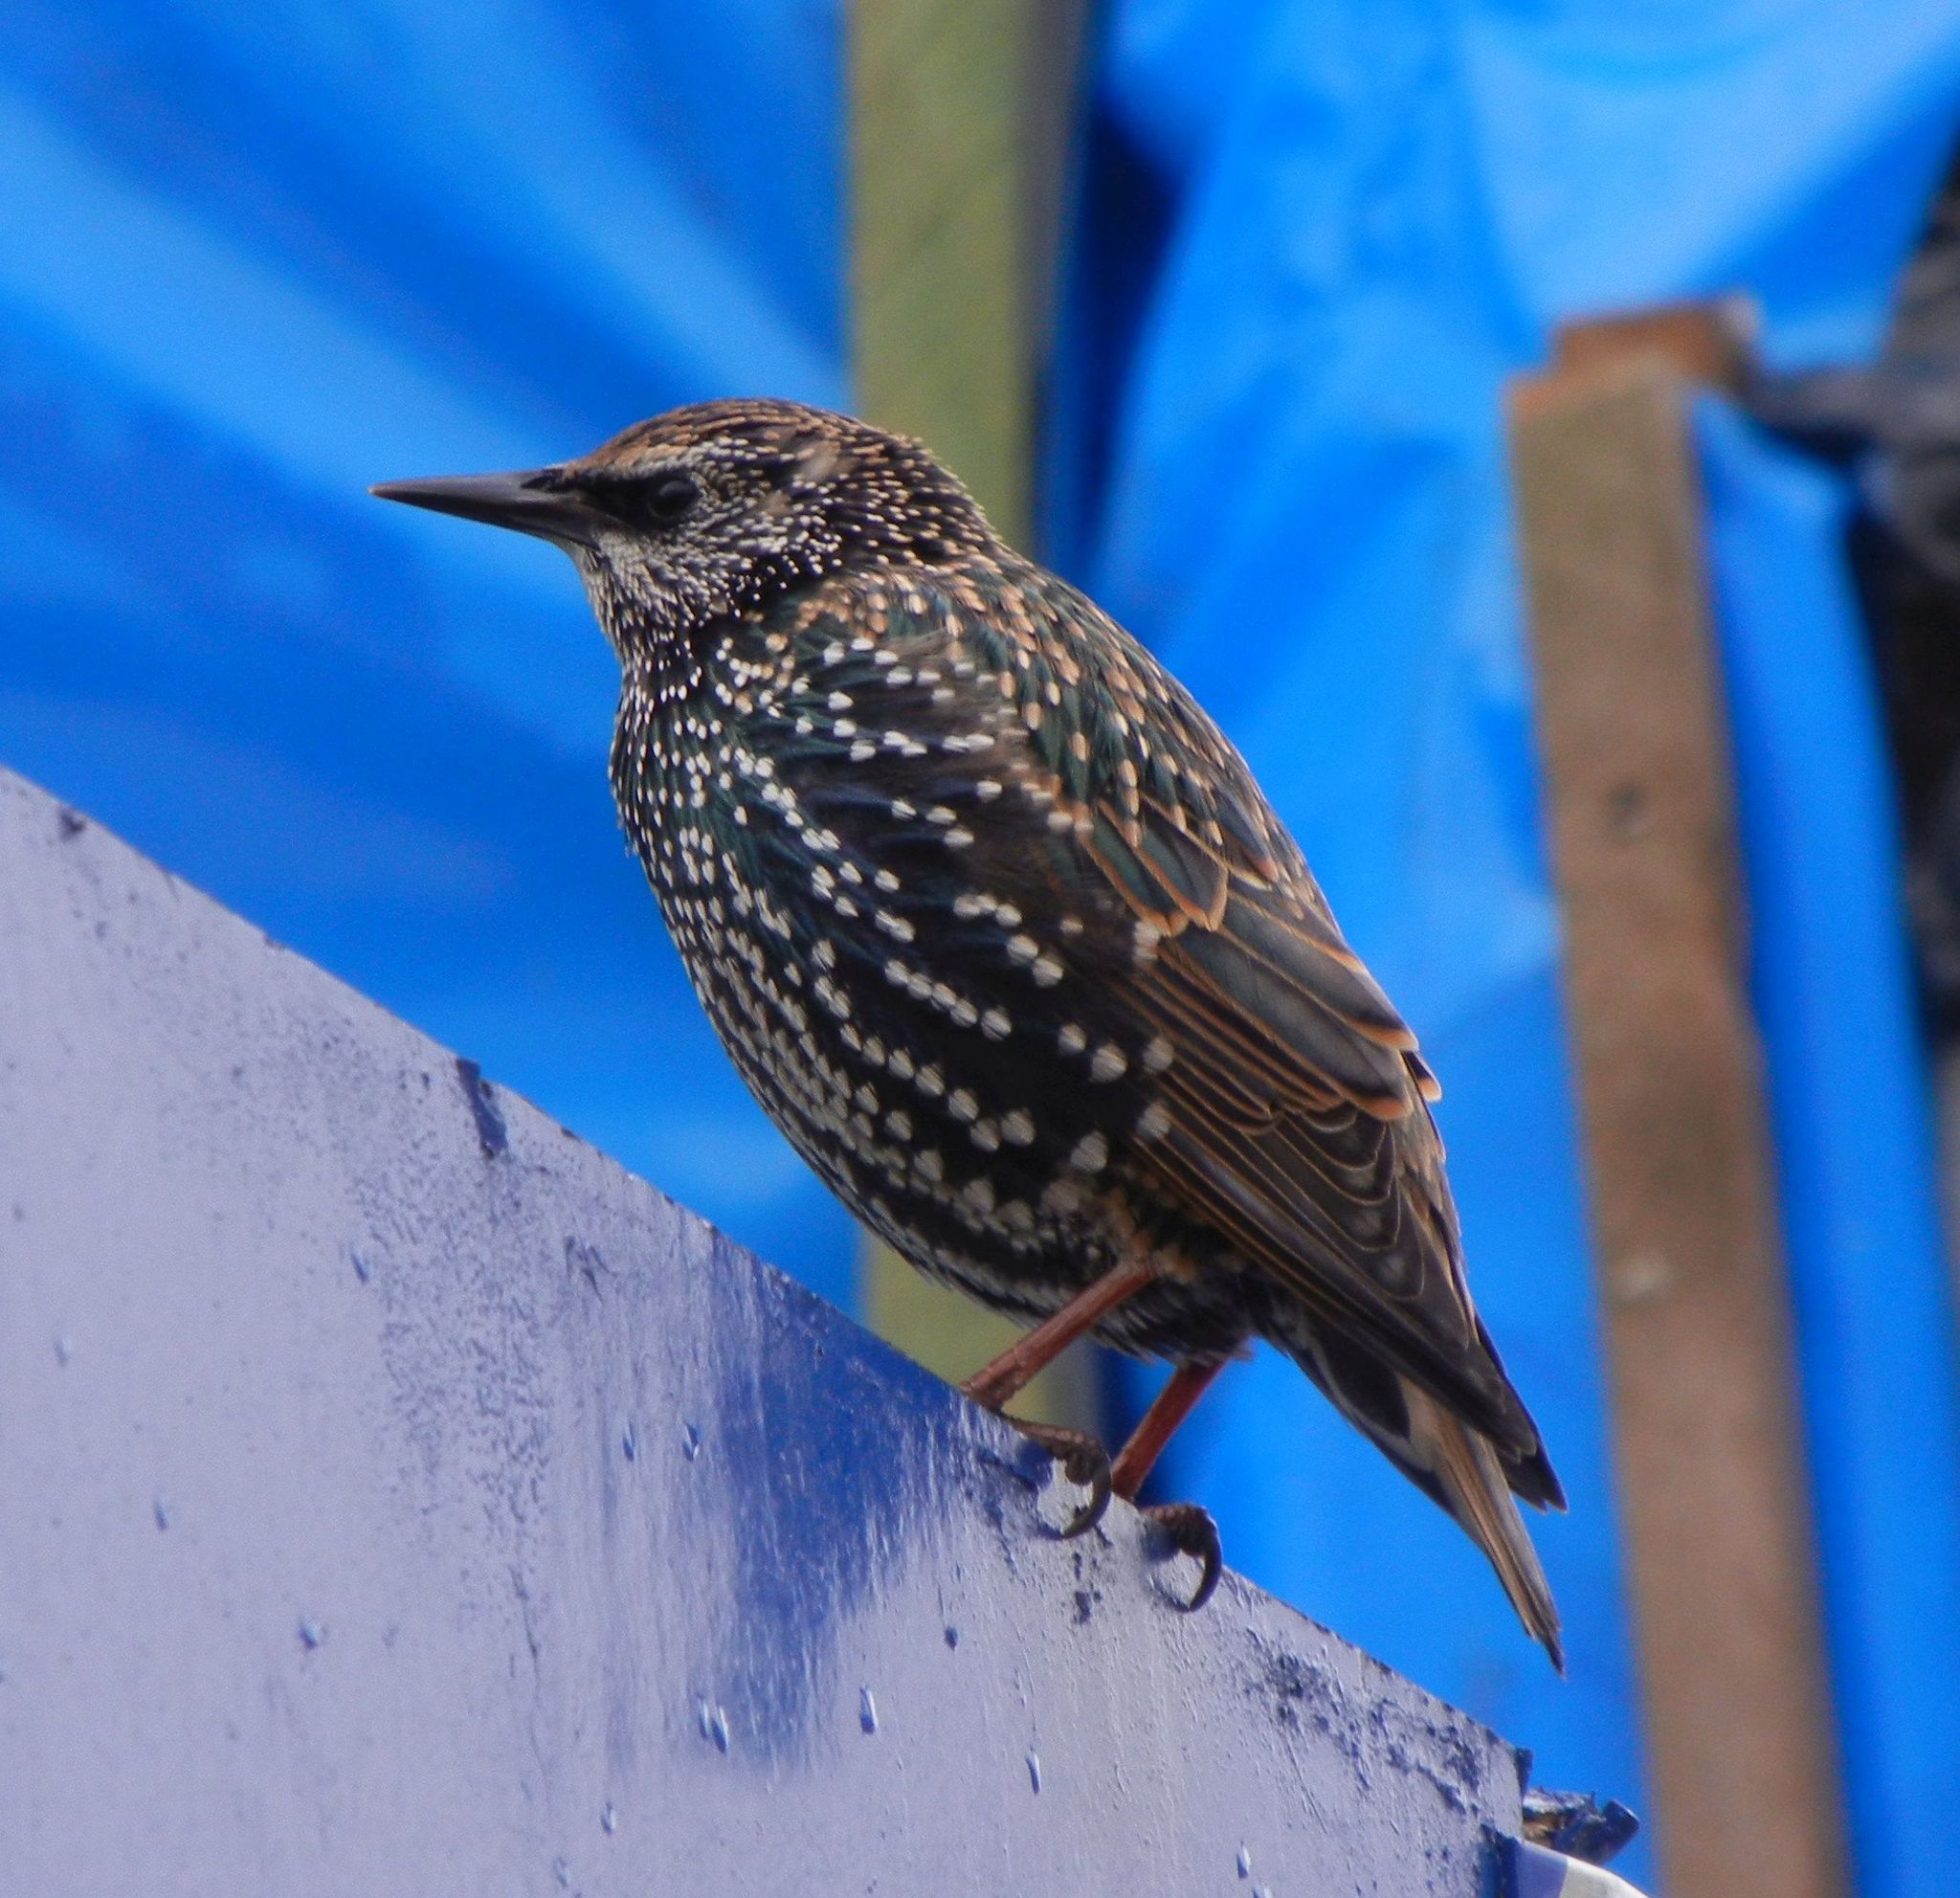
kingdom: Animalia
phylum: Chordata
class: Aves
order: Passeriformes
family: Sturnidae
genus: Sturnus
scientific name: Sturnus vulgaris
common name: Common starling
